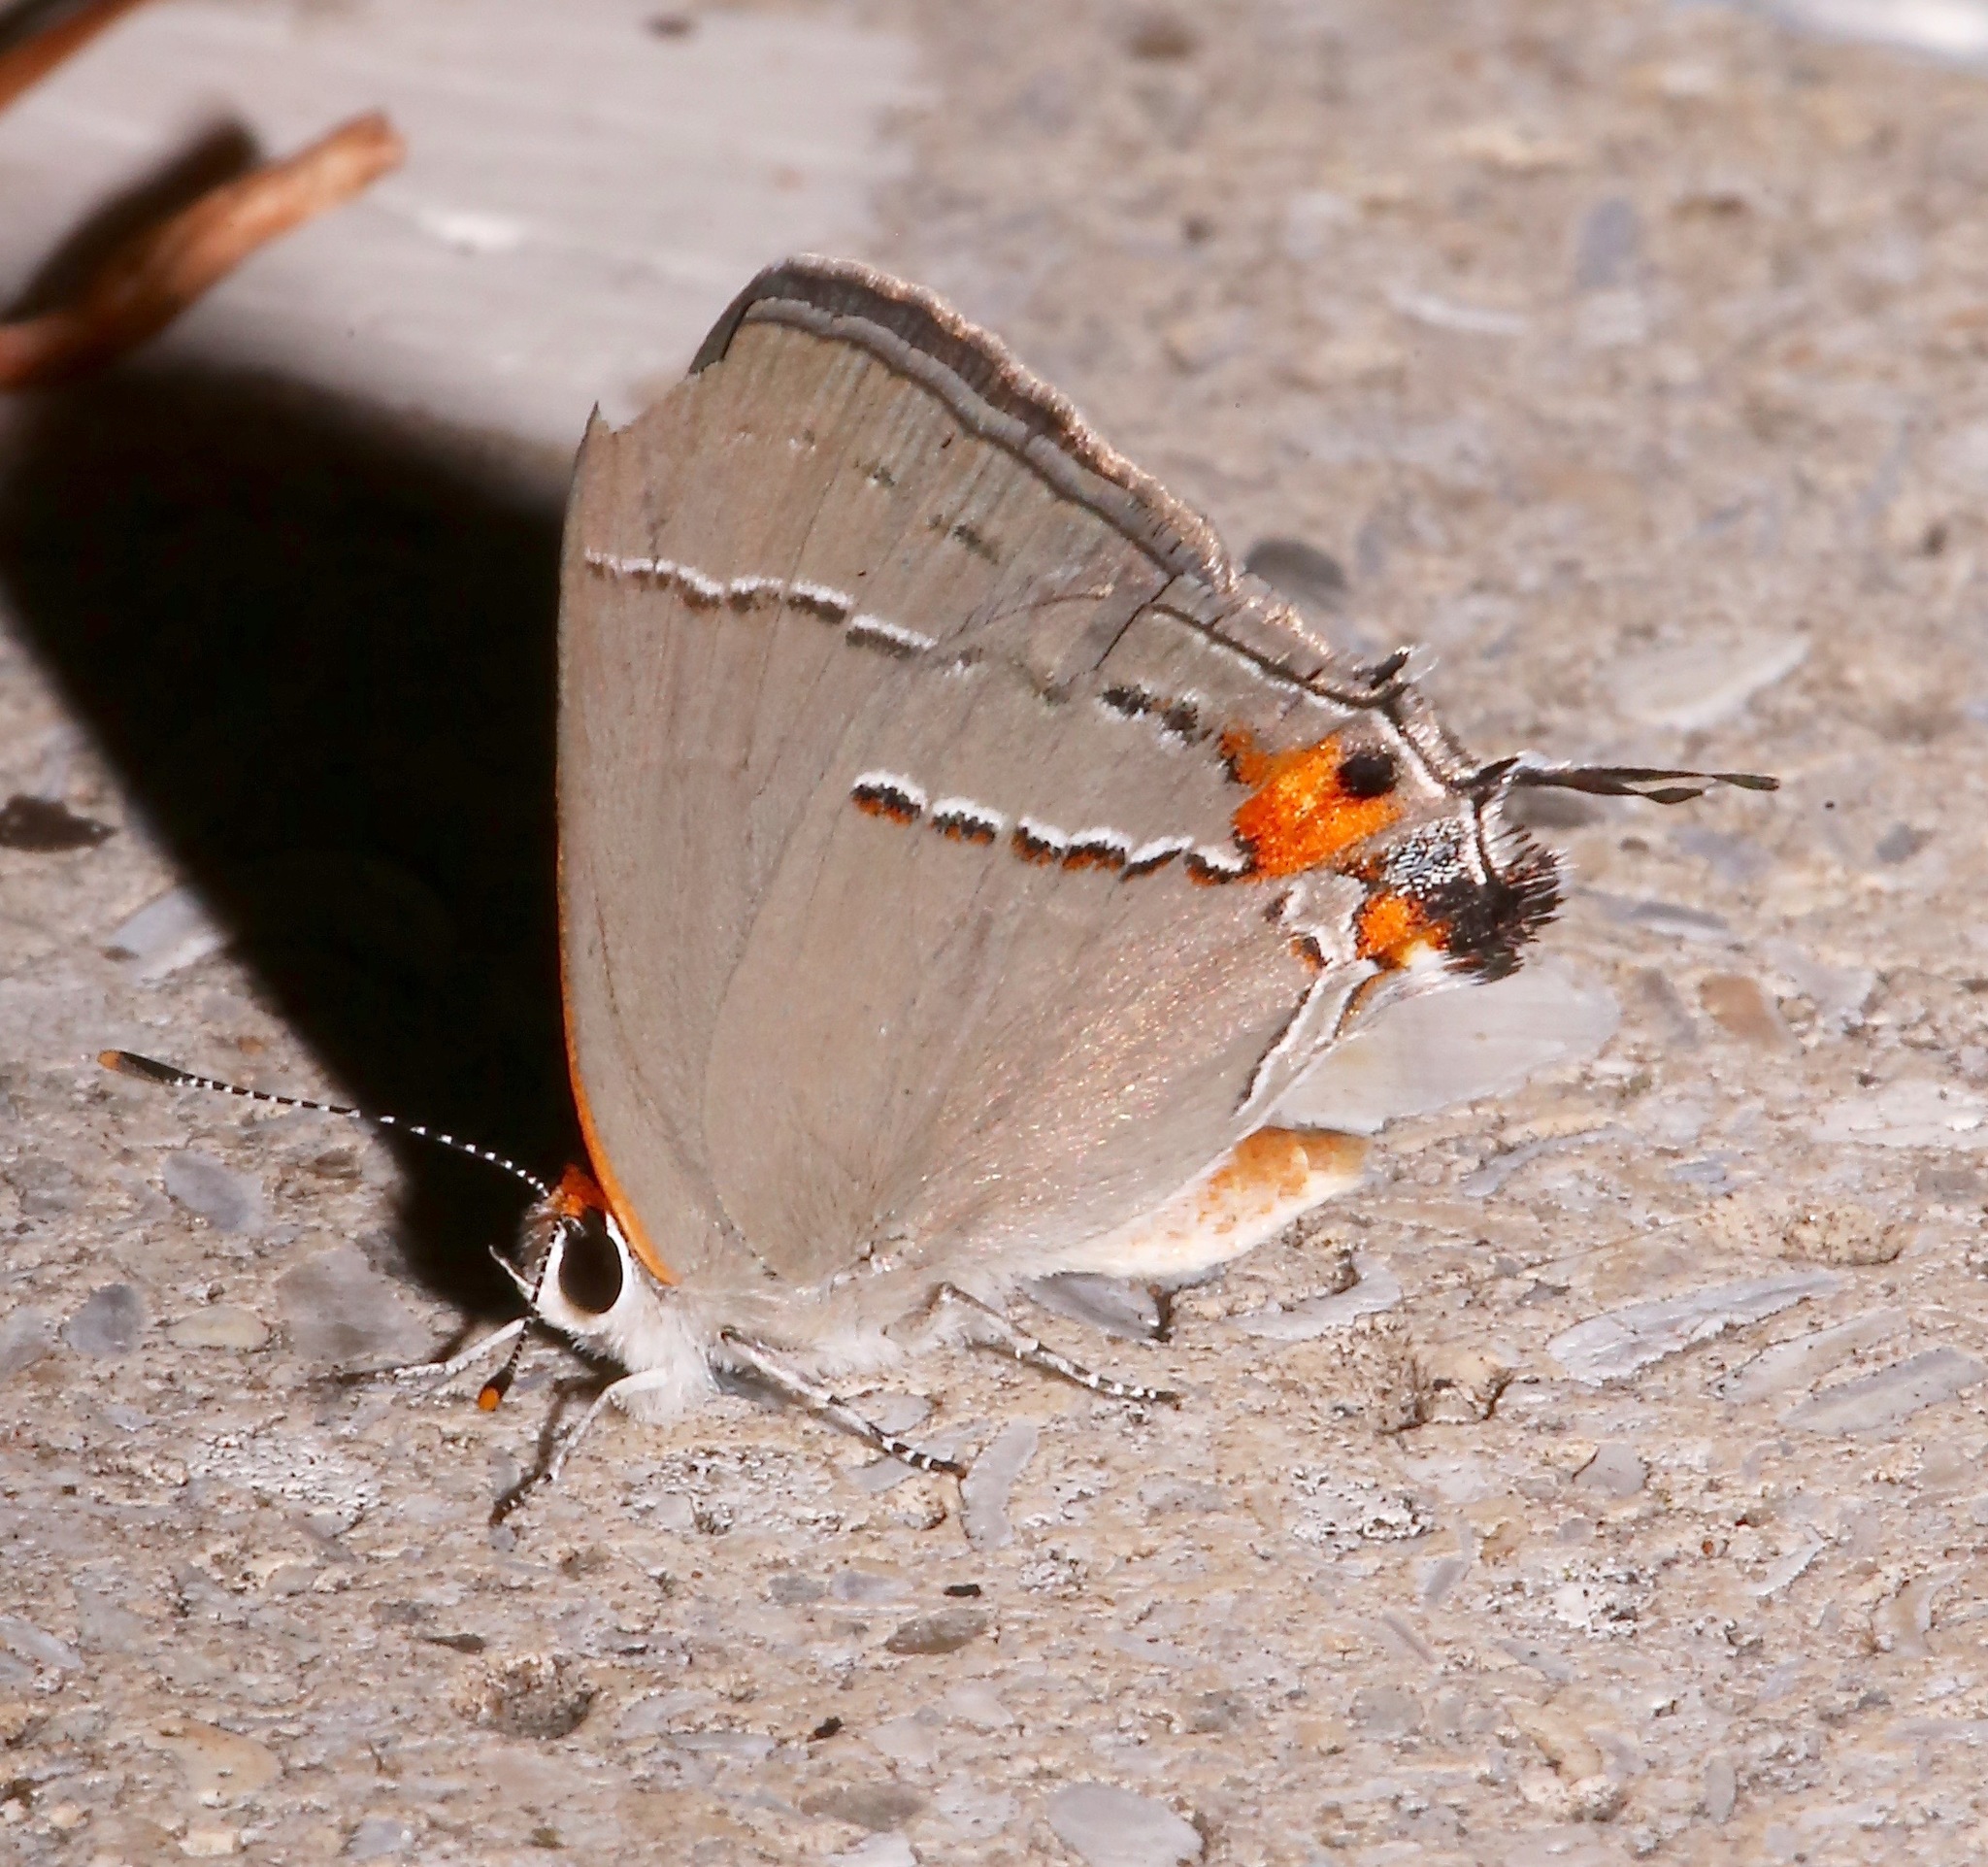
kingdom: Animalia
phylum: Arthropoda
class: Insecta
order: Lepidoptera
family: Lycaenidae
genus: Strymon
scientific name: Strymon melinus
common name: Gray hairstreak
